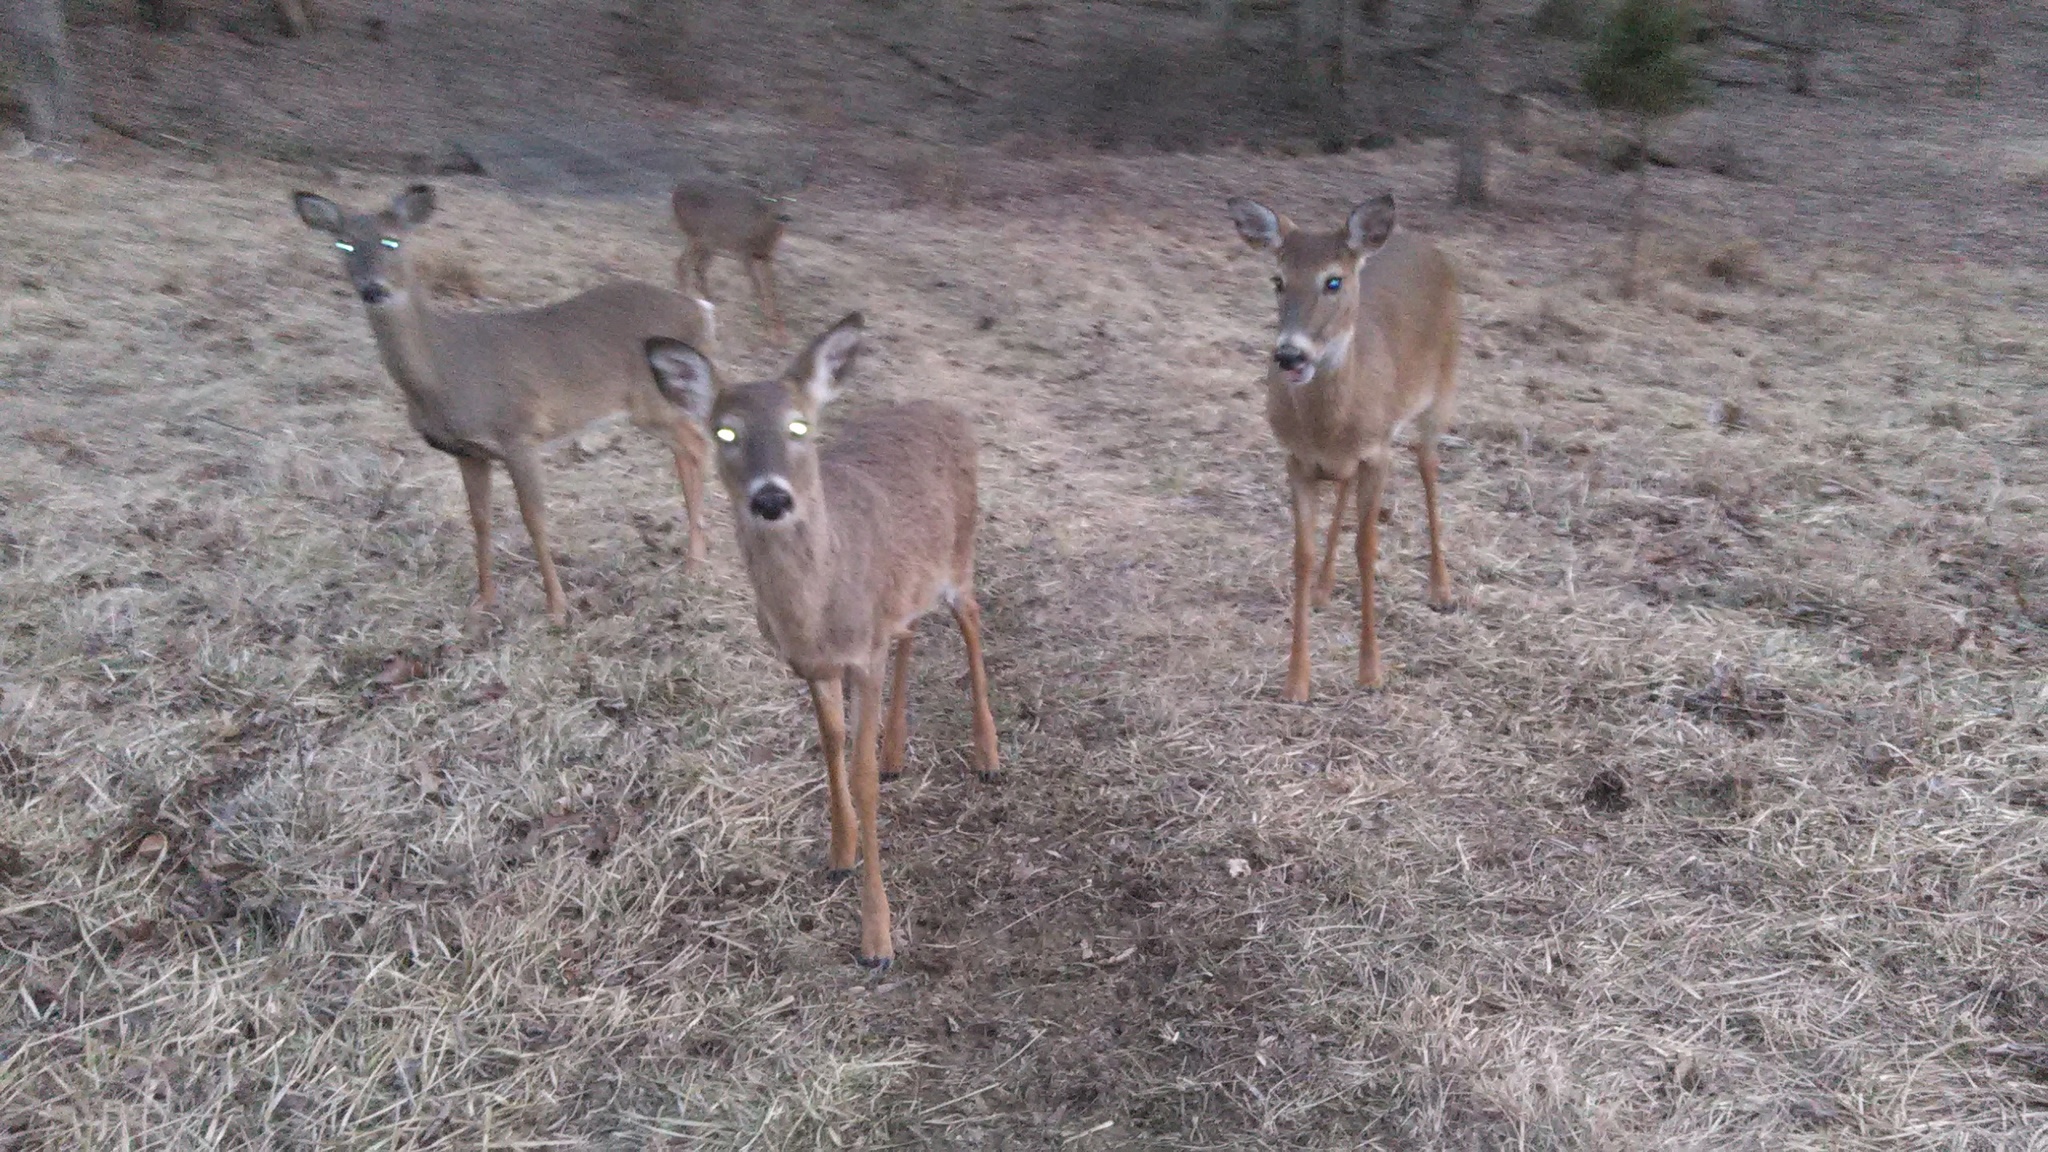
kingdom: Animalia
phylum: Chordata
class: Mammalia
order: Artiodactyla
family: Cervidae
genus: Odocoileus
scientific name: Odocoileus virginianus
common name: White-tailed deer
